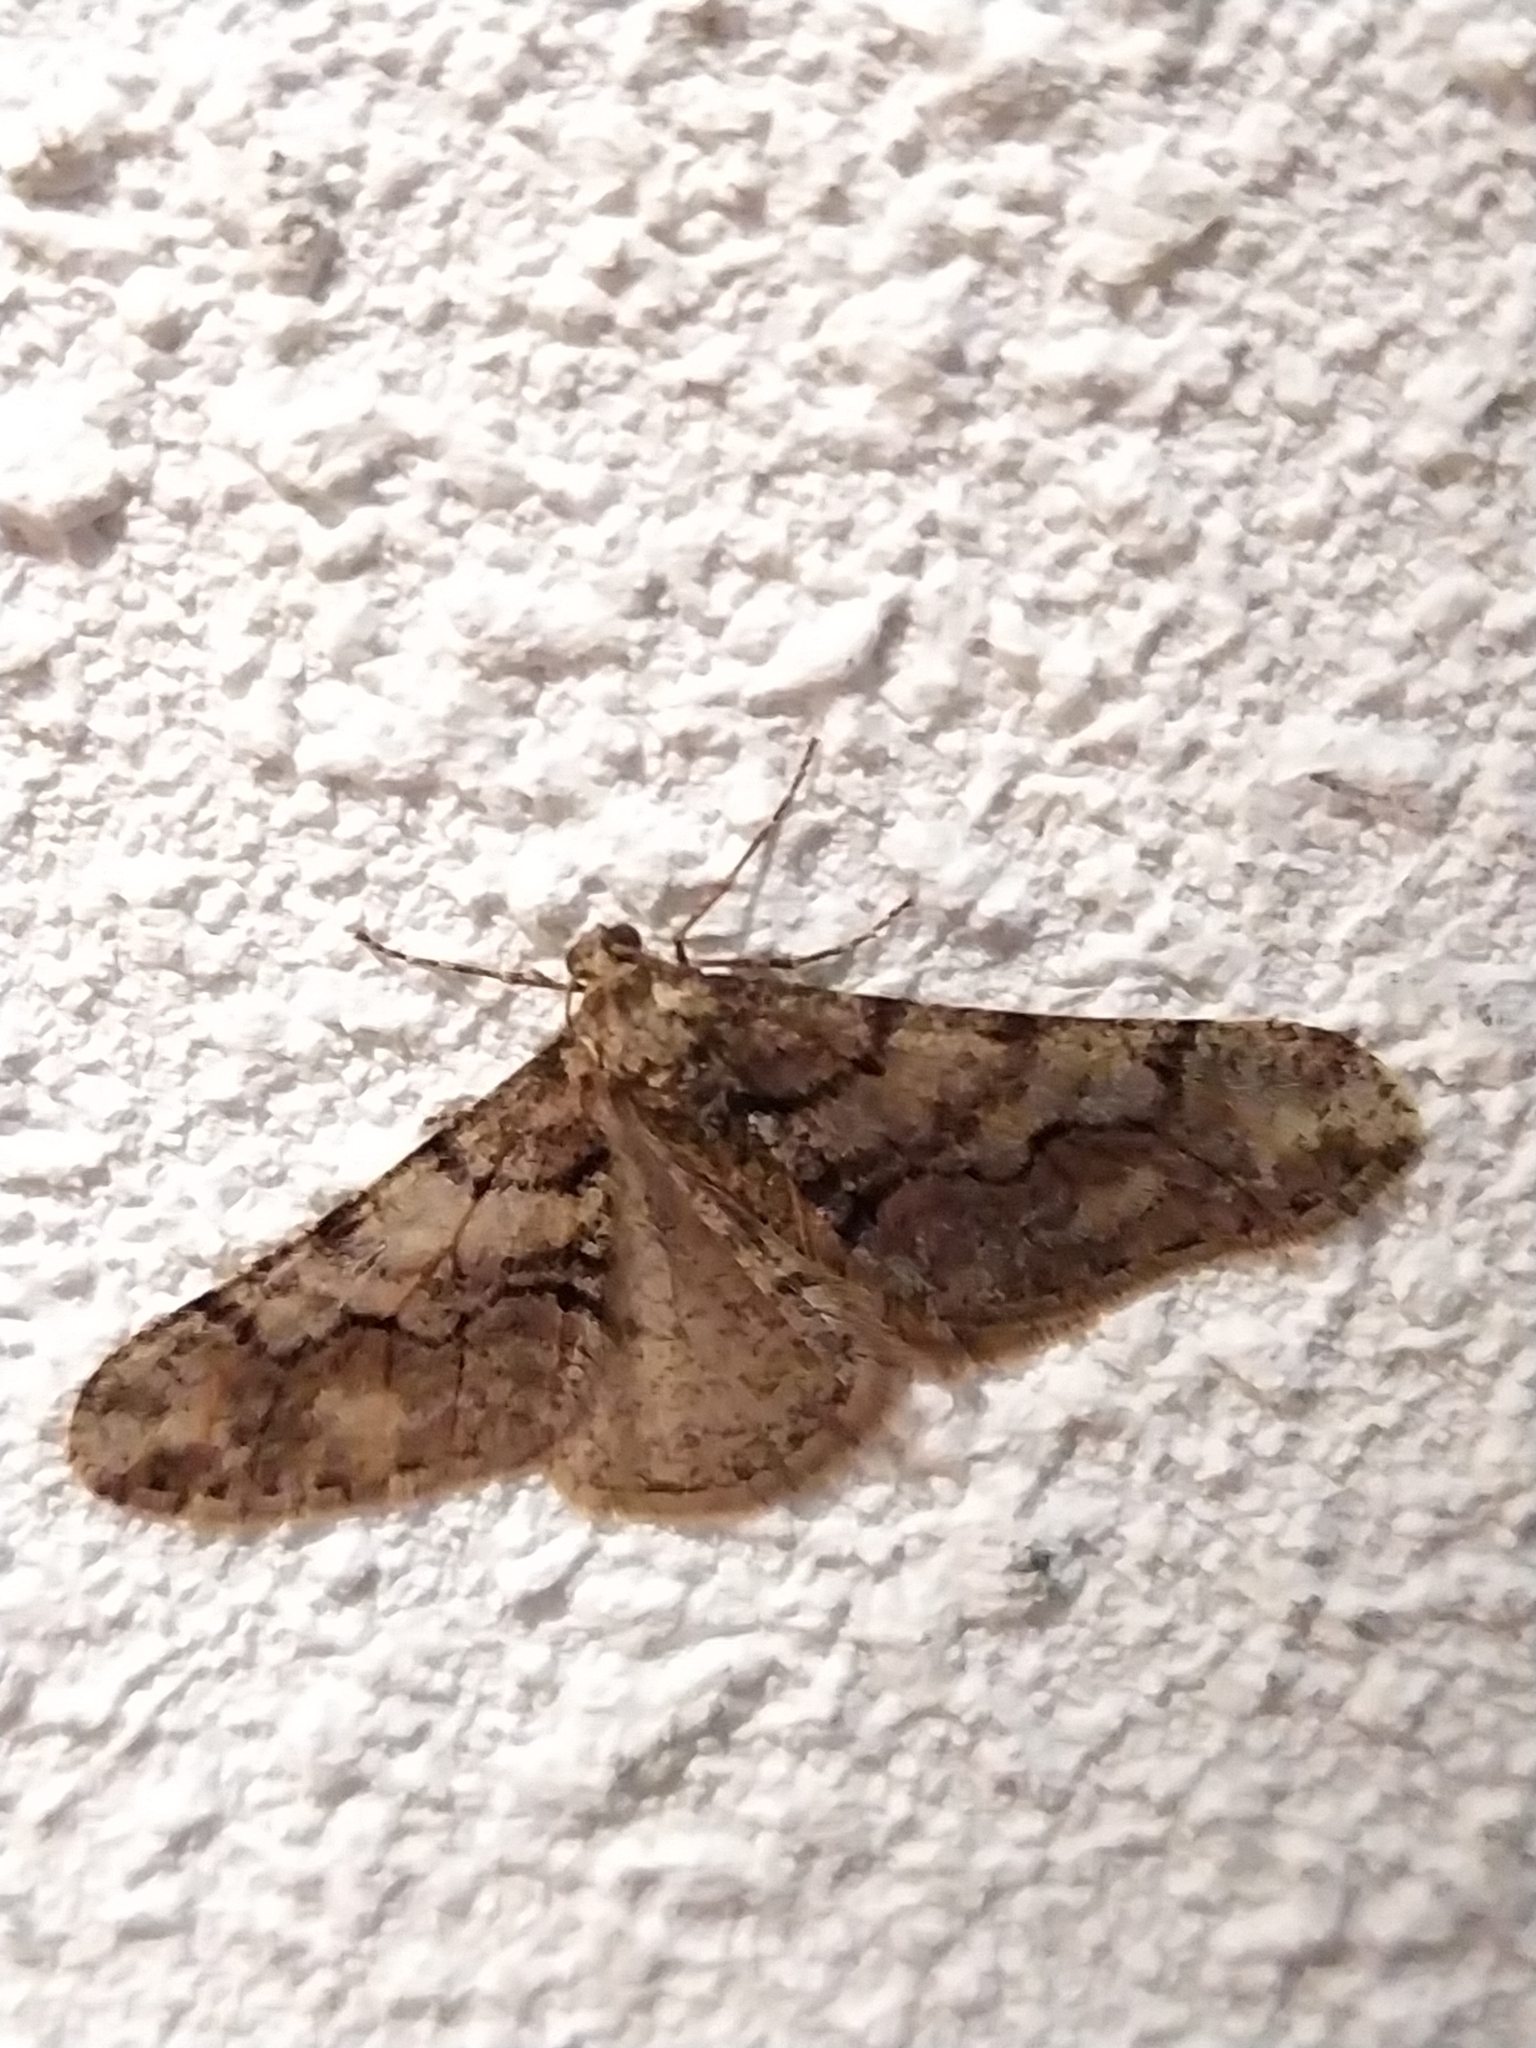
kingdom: Animalia
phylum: Arthropoda
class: Insecta
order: Lepidoptera
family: Geometridae
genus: Agriopis
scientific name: Agriopis leucophaearia
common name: Spring usher
